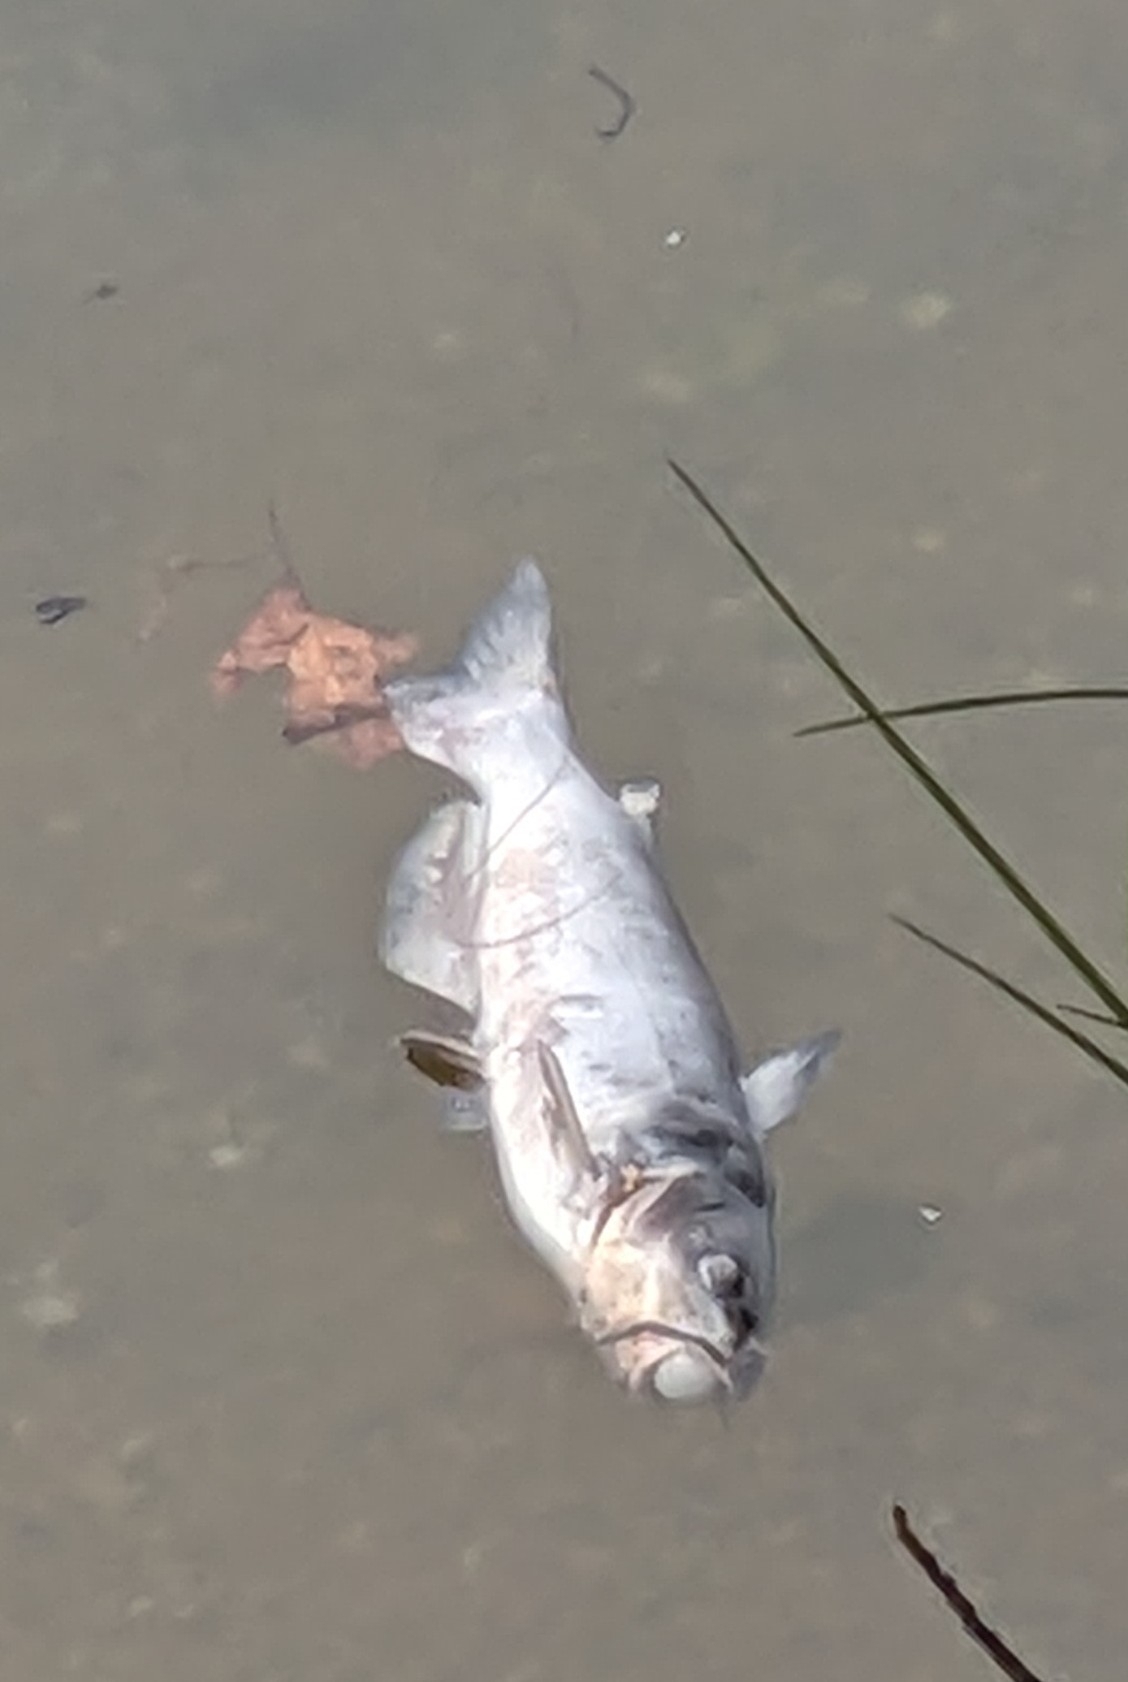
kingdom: Animalia
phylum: Chordata
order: Siluriformes
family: Ictaluridae
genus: Ictalurus
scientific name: Ictalurus punctatus
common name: Channel catfish
